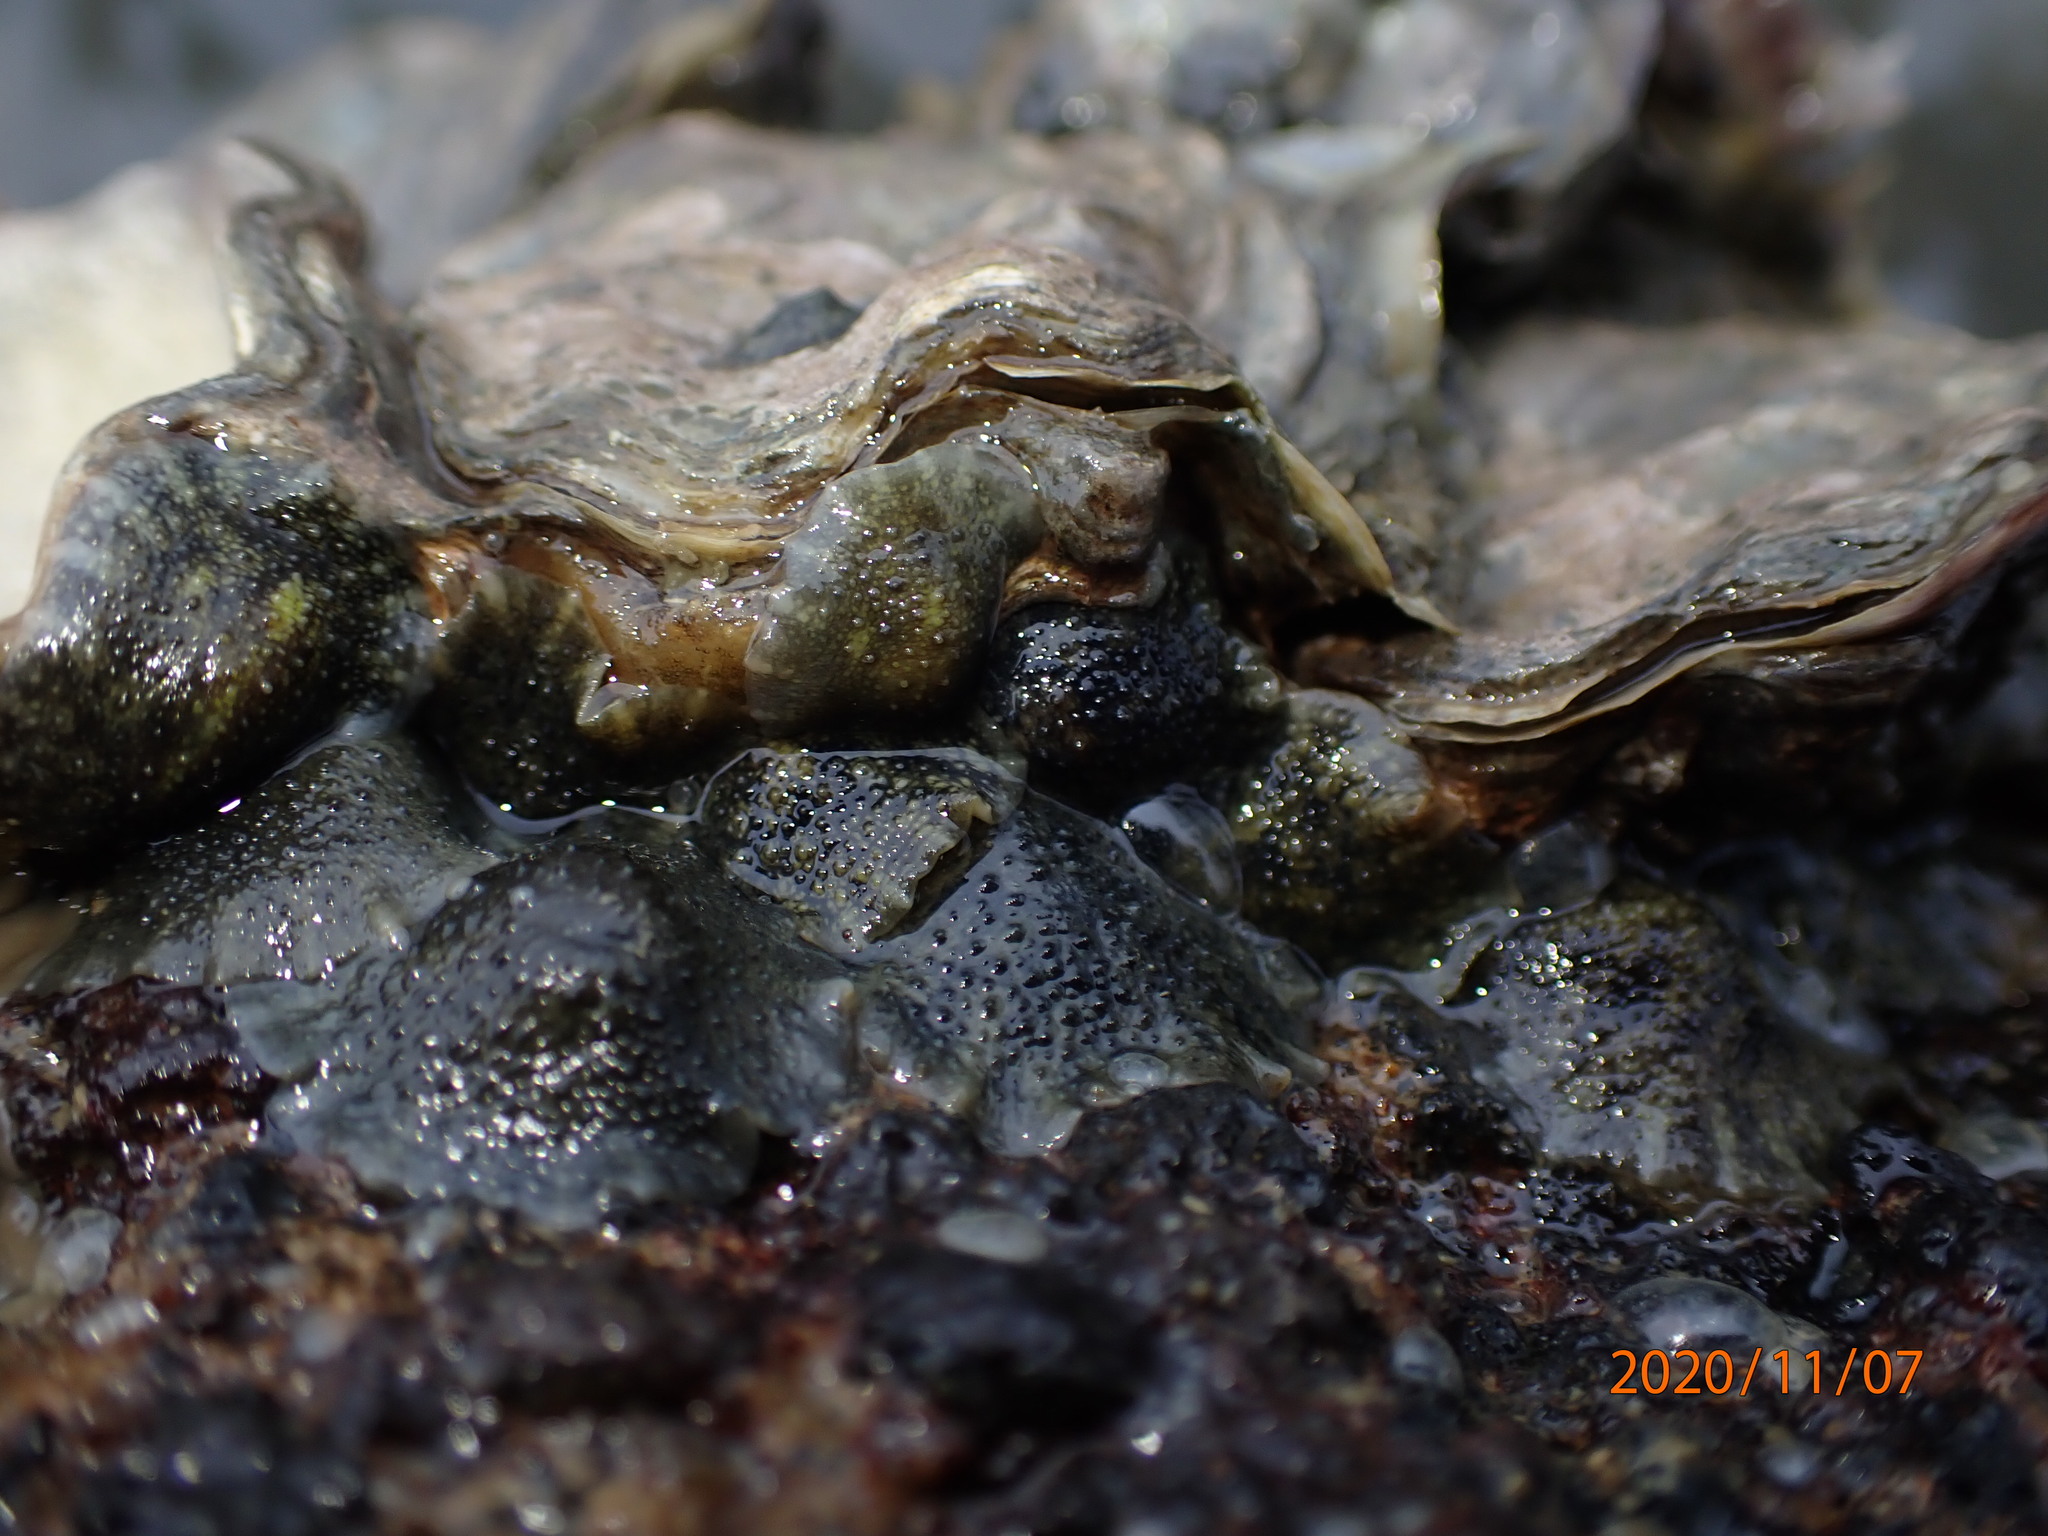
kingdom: Animalia
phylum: Mollusca
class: Gastropoda
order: Systellommatophora
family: Onchidiidae
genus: Onchidella
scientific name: Onchidella nigricans
